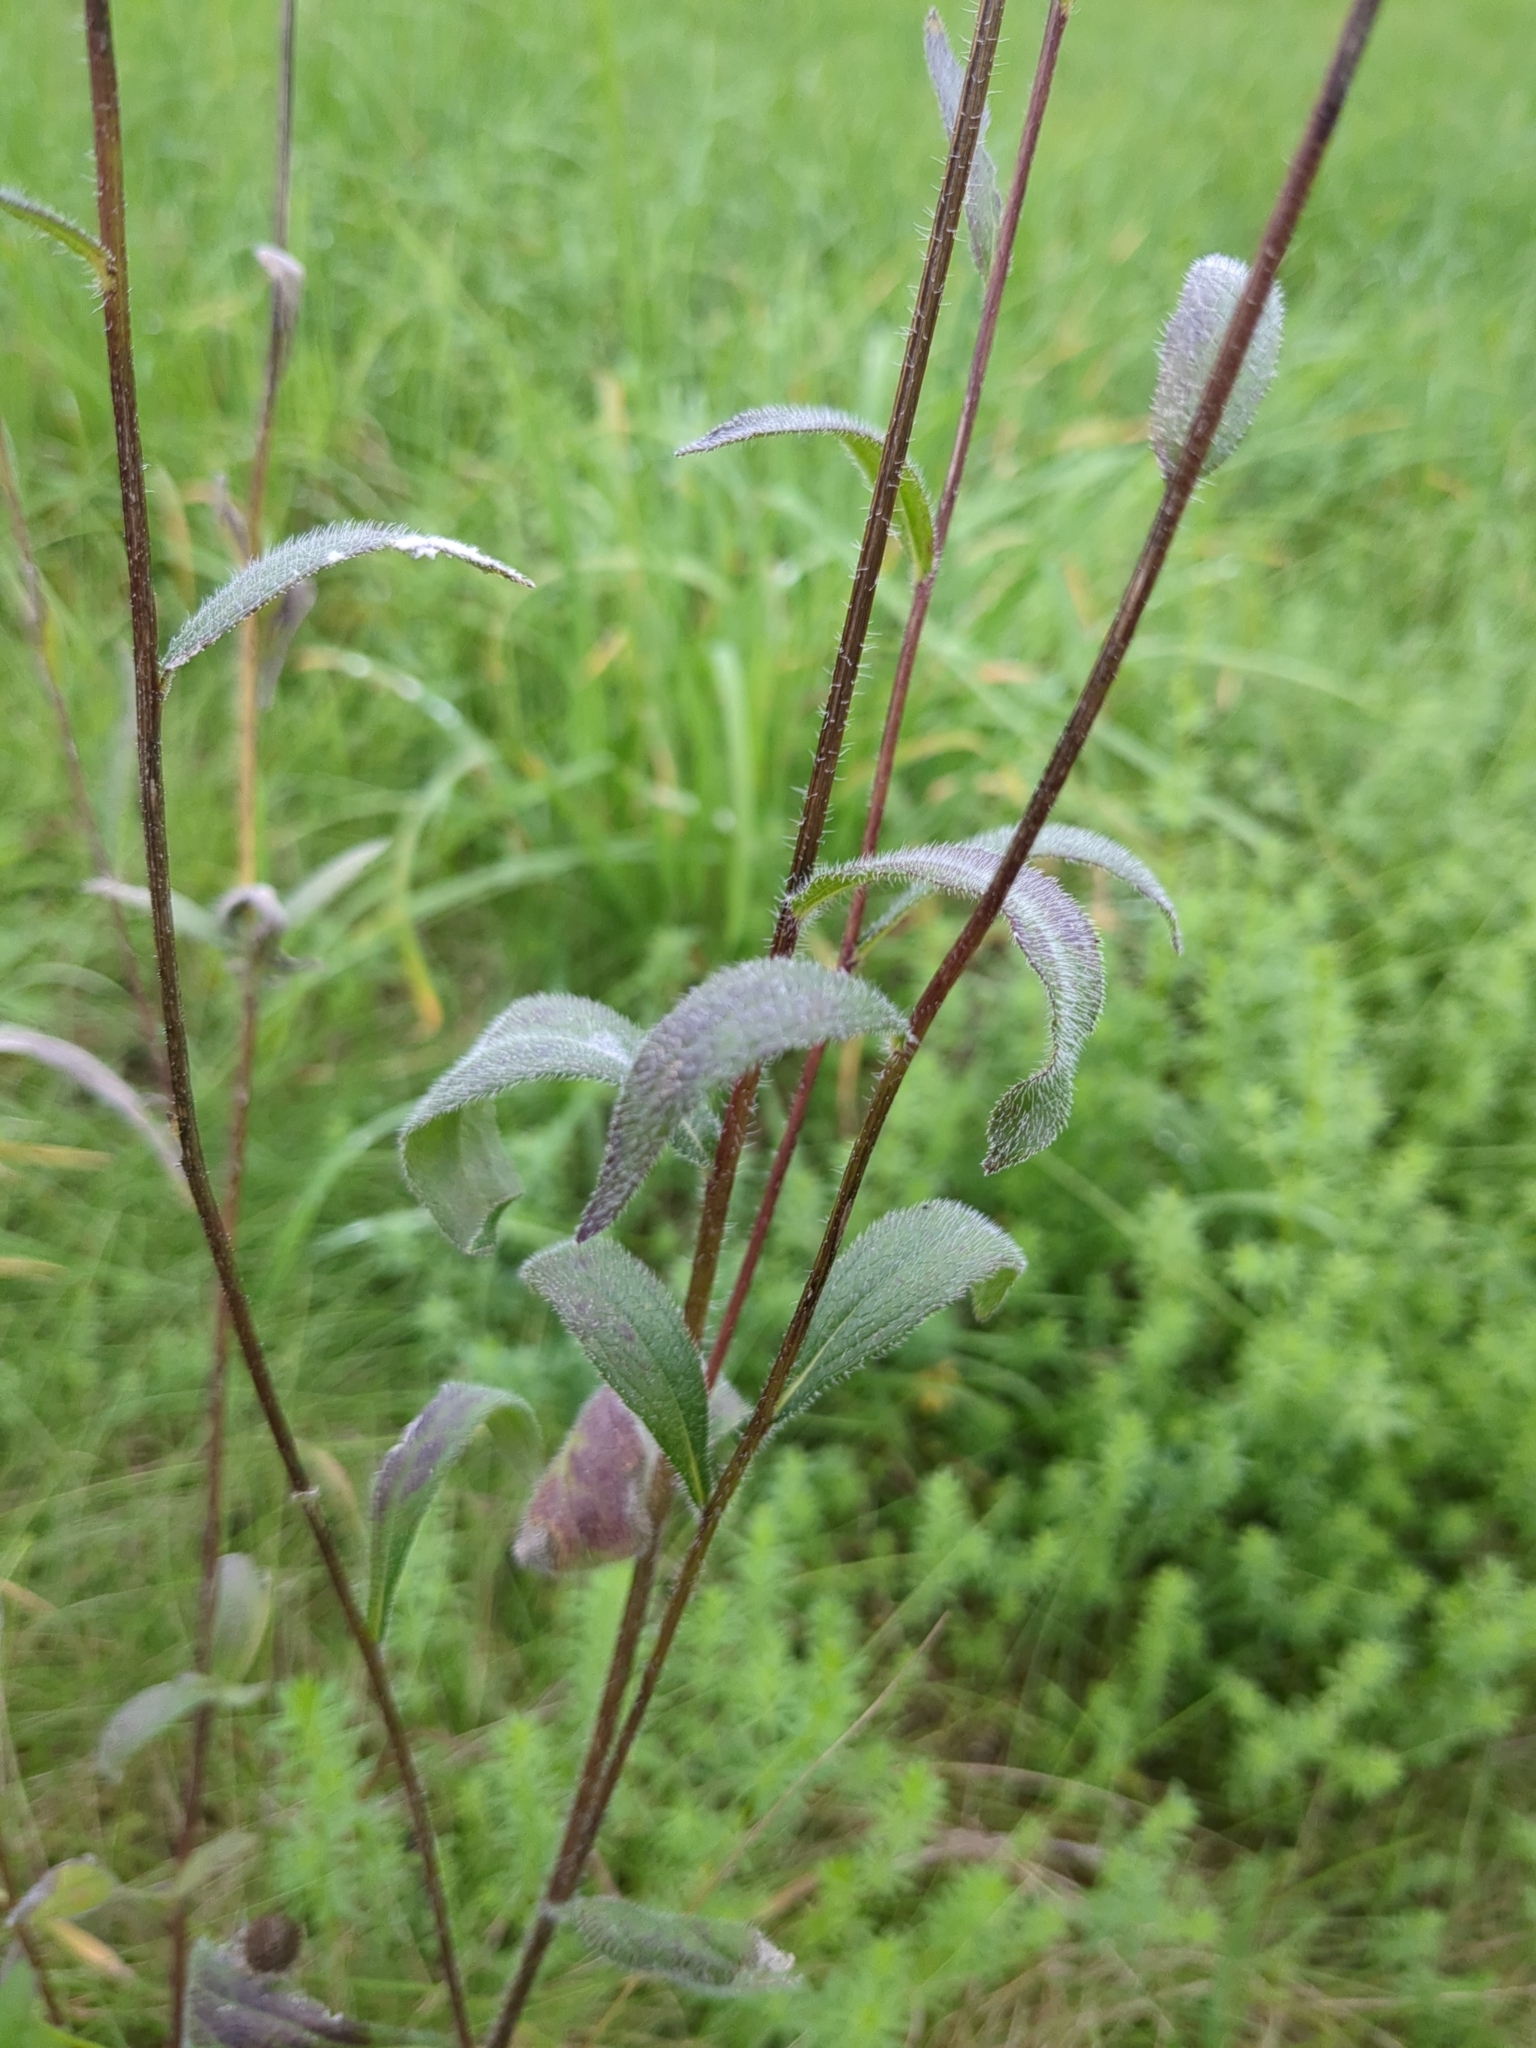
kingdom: Plantae
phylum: Tracheophyta
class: Magnoliopsida
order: Asterales
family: Asteraceae
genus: Rudbeckia
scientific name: Rudbeckia hirta
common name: Black-eyed-susan
